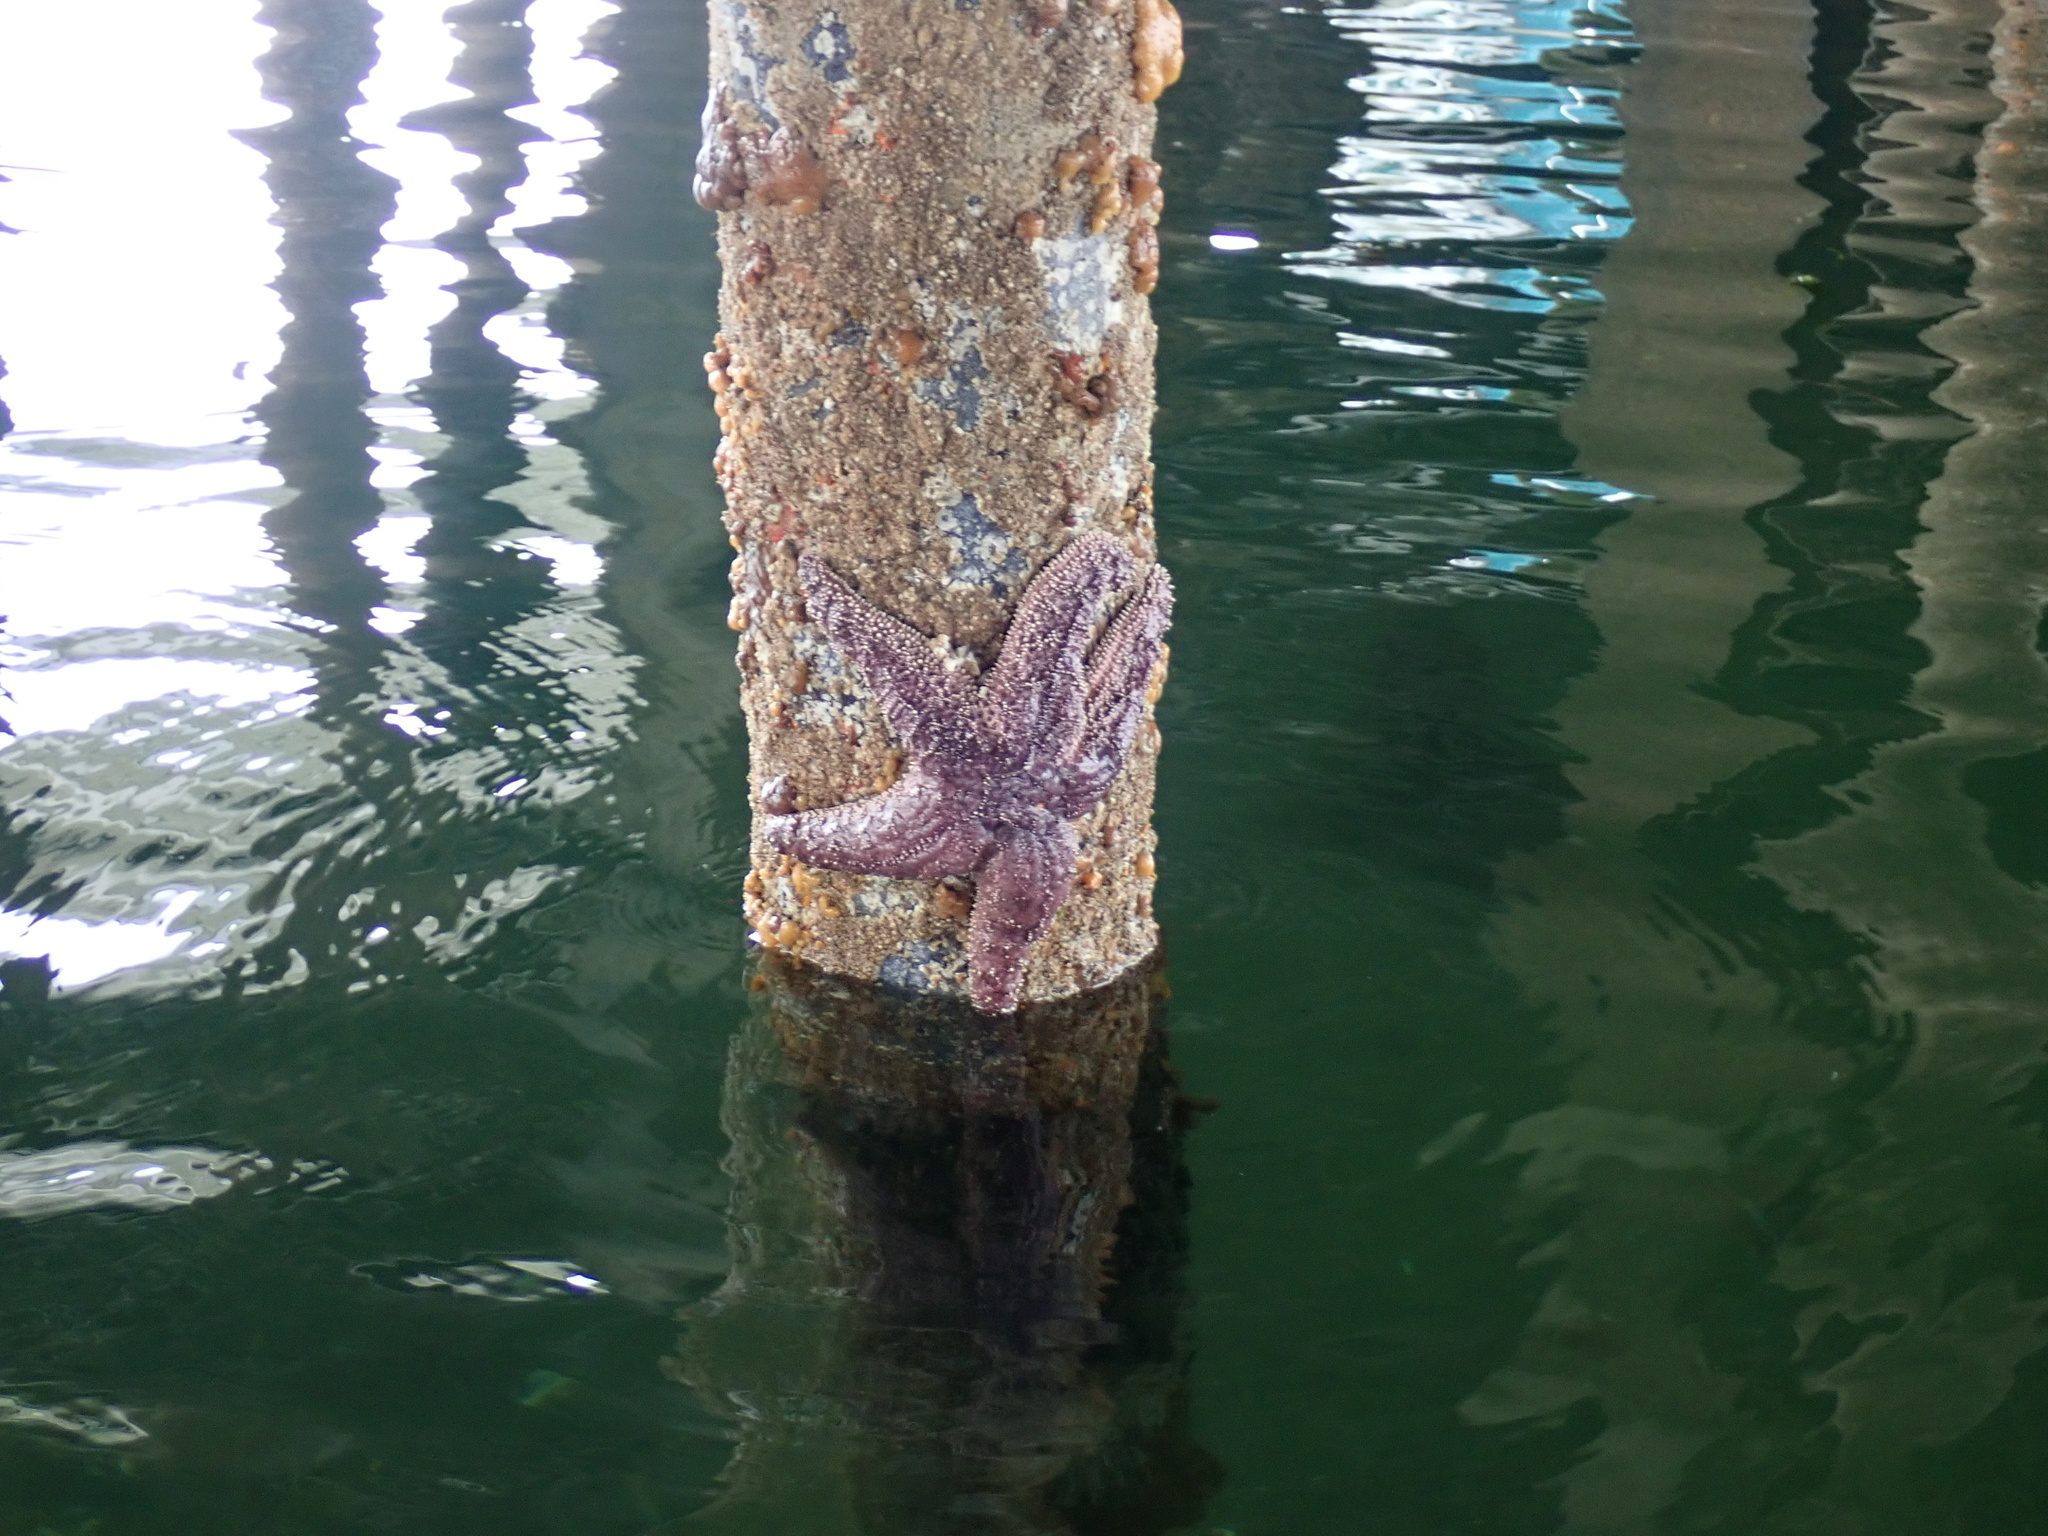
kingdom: Animalia
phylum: Echinodermata
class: Asteroidea
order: Forcipulatida
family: Asteriidae
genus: Pisaster
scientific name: Pisaster ochraceus
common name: Ochre stars
